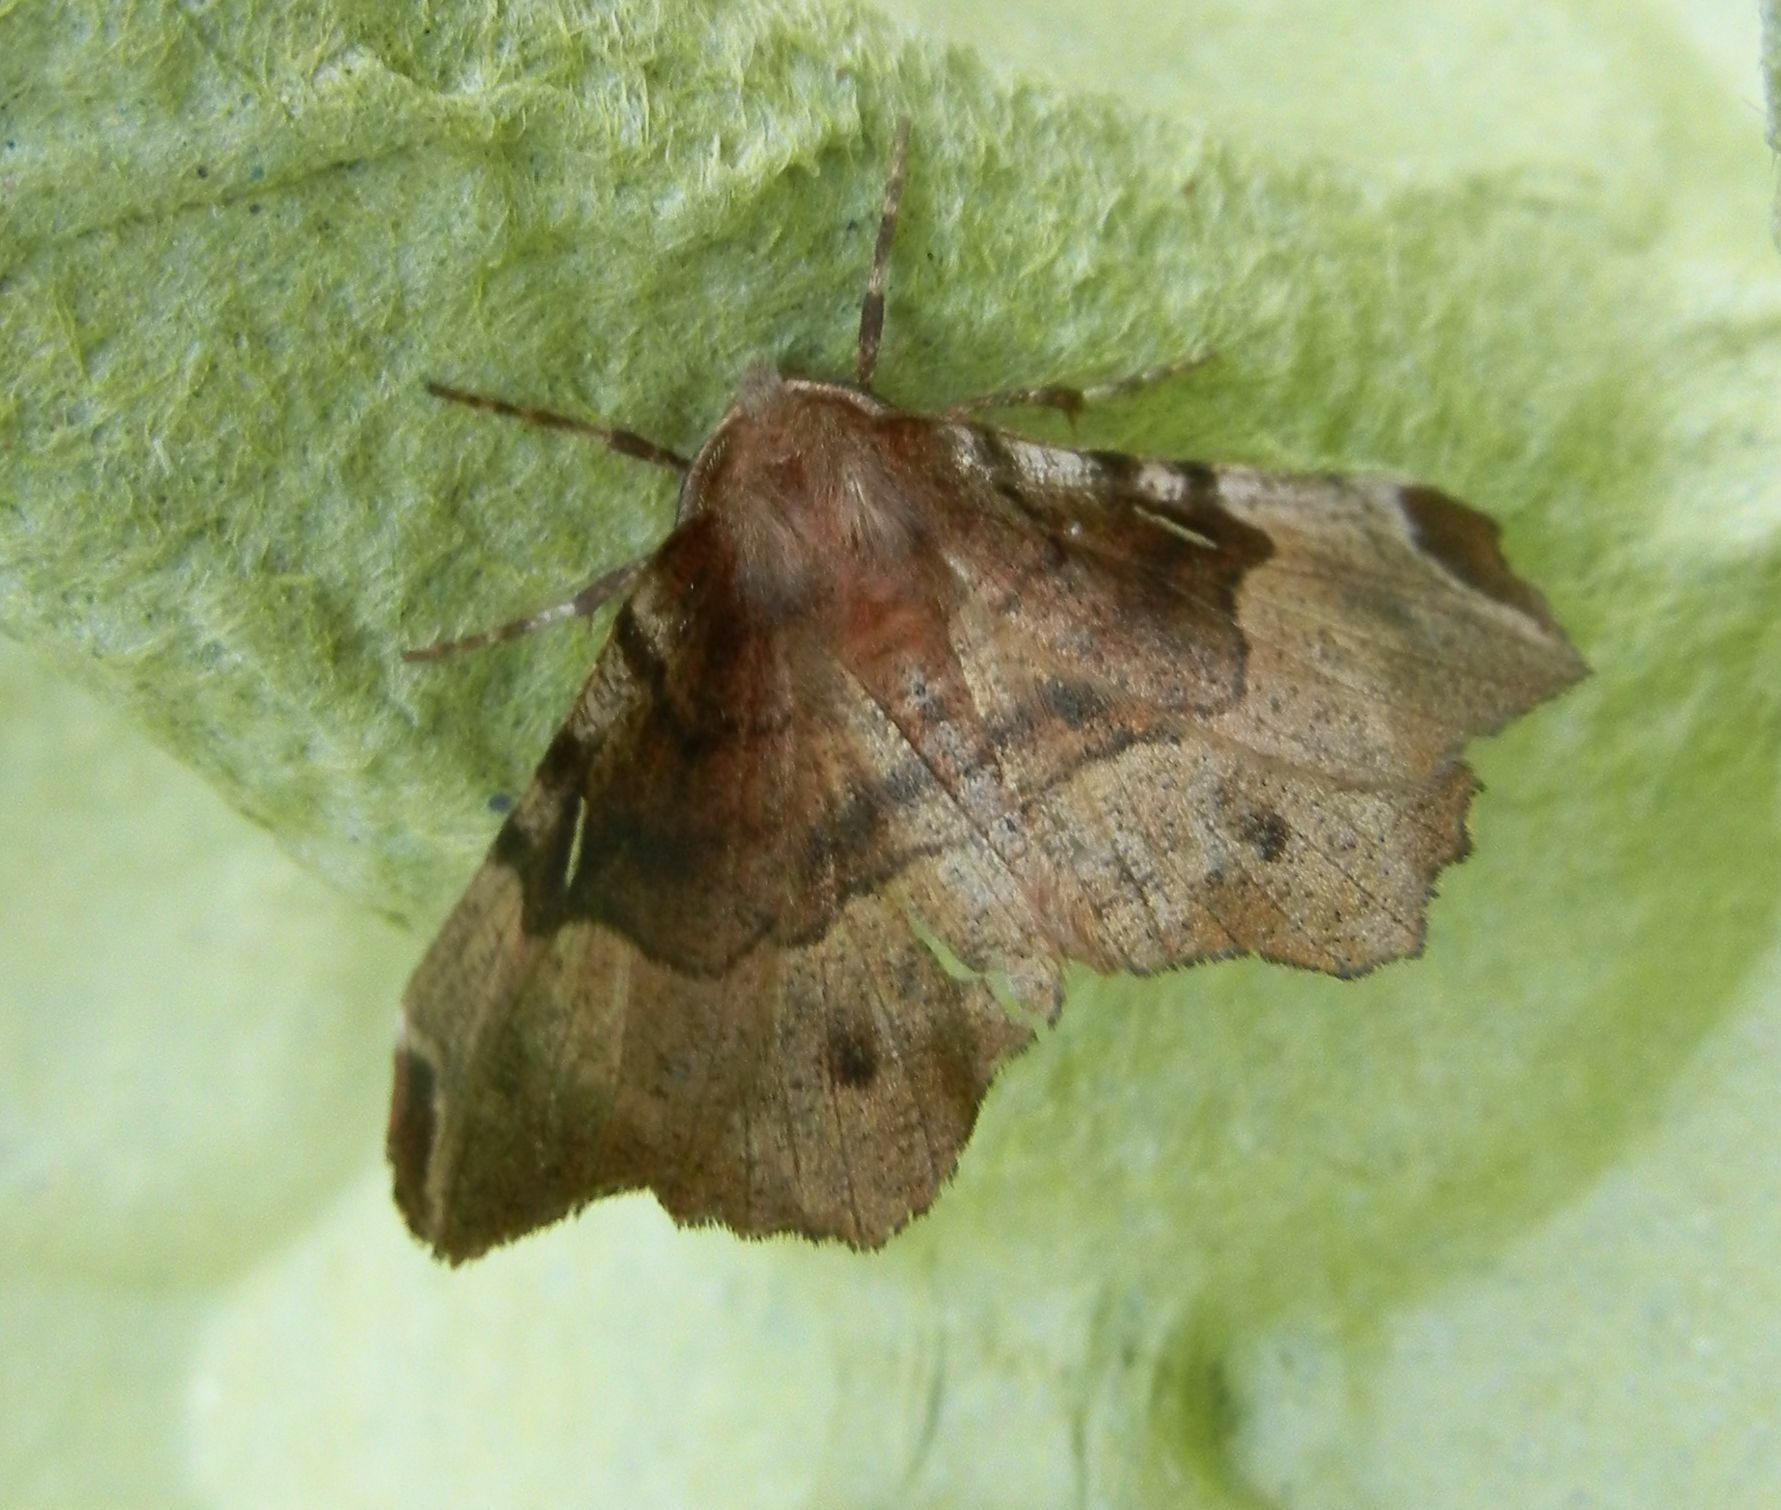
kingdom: Animalia
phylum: Arthropoda
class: Insecta
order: Lepidoptera
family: Geometridae
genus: Selenia
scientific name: Selenia tetralunaria
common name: Purple thorn
